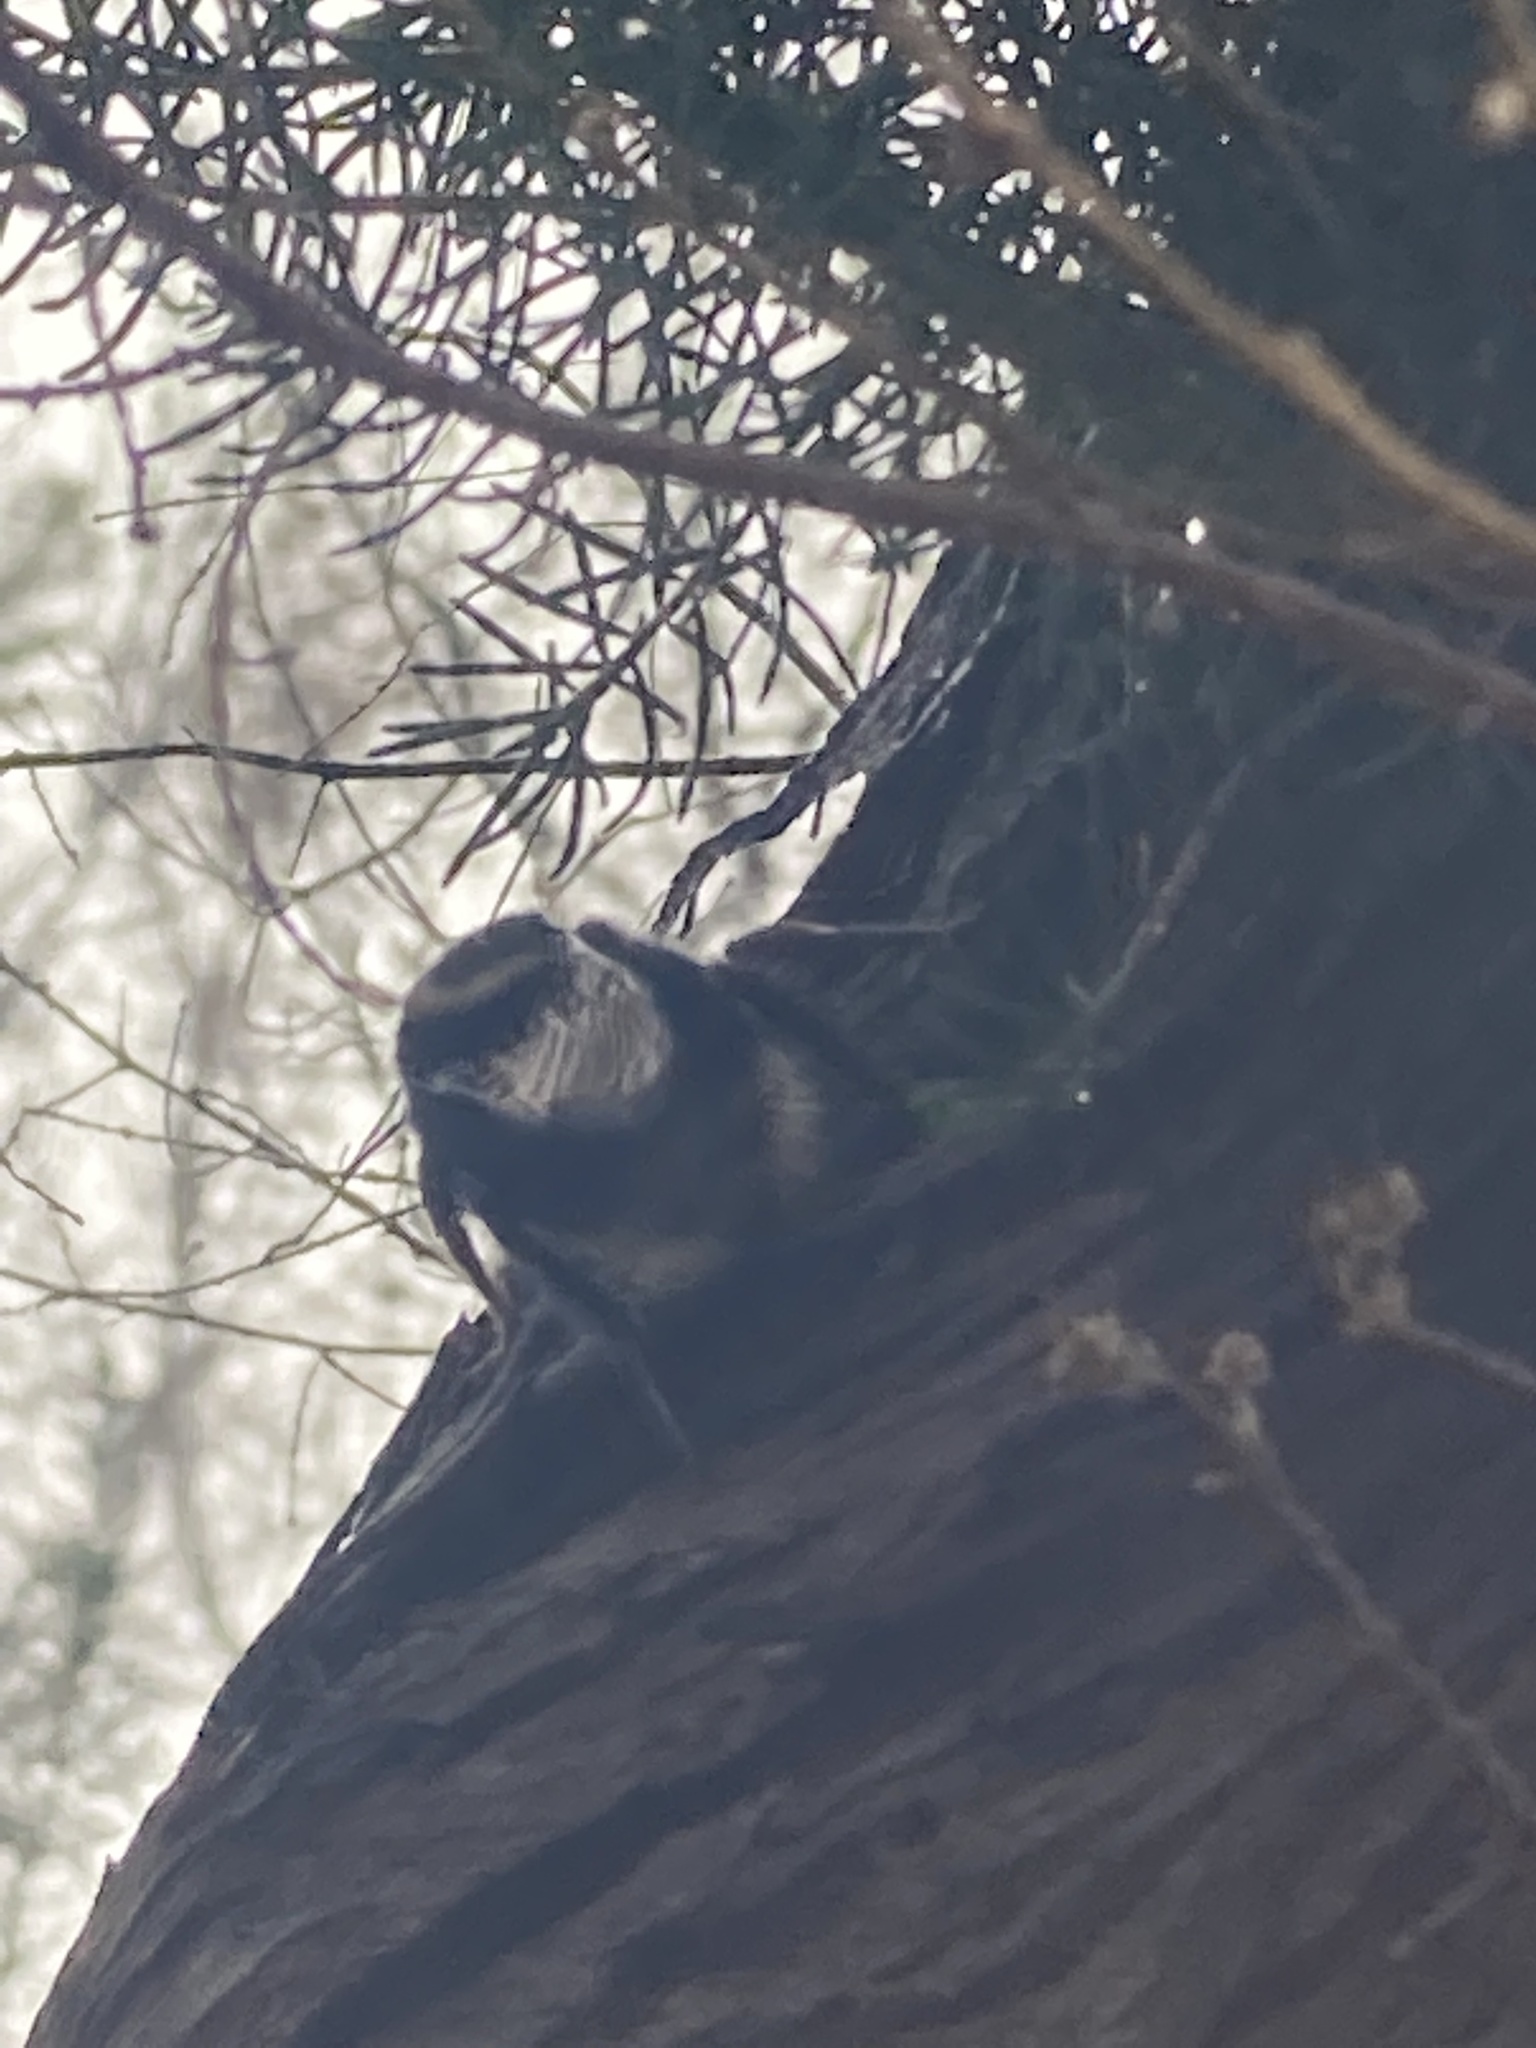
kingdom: Animalia
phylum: Arthropoda
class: Insecta
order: Hymenoptera
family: Apidae
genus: Bombus
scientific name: Bombus terrestris
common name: Buff-tailed bumblebee
